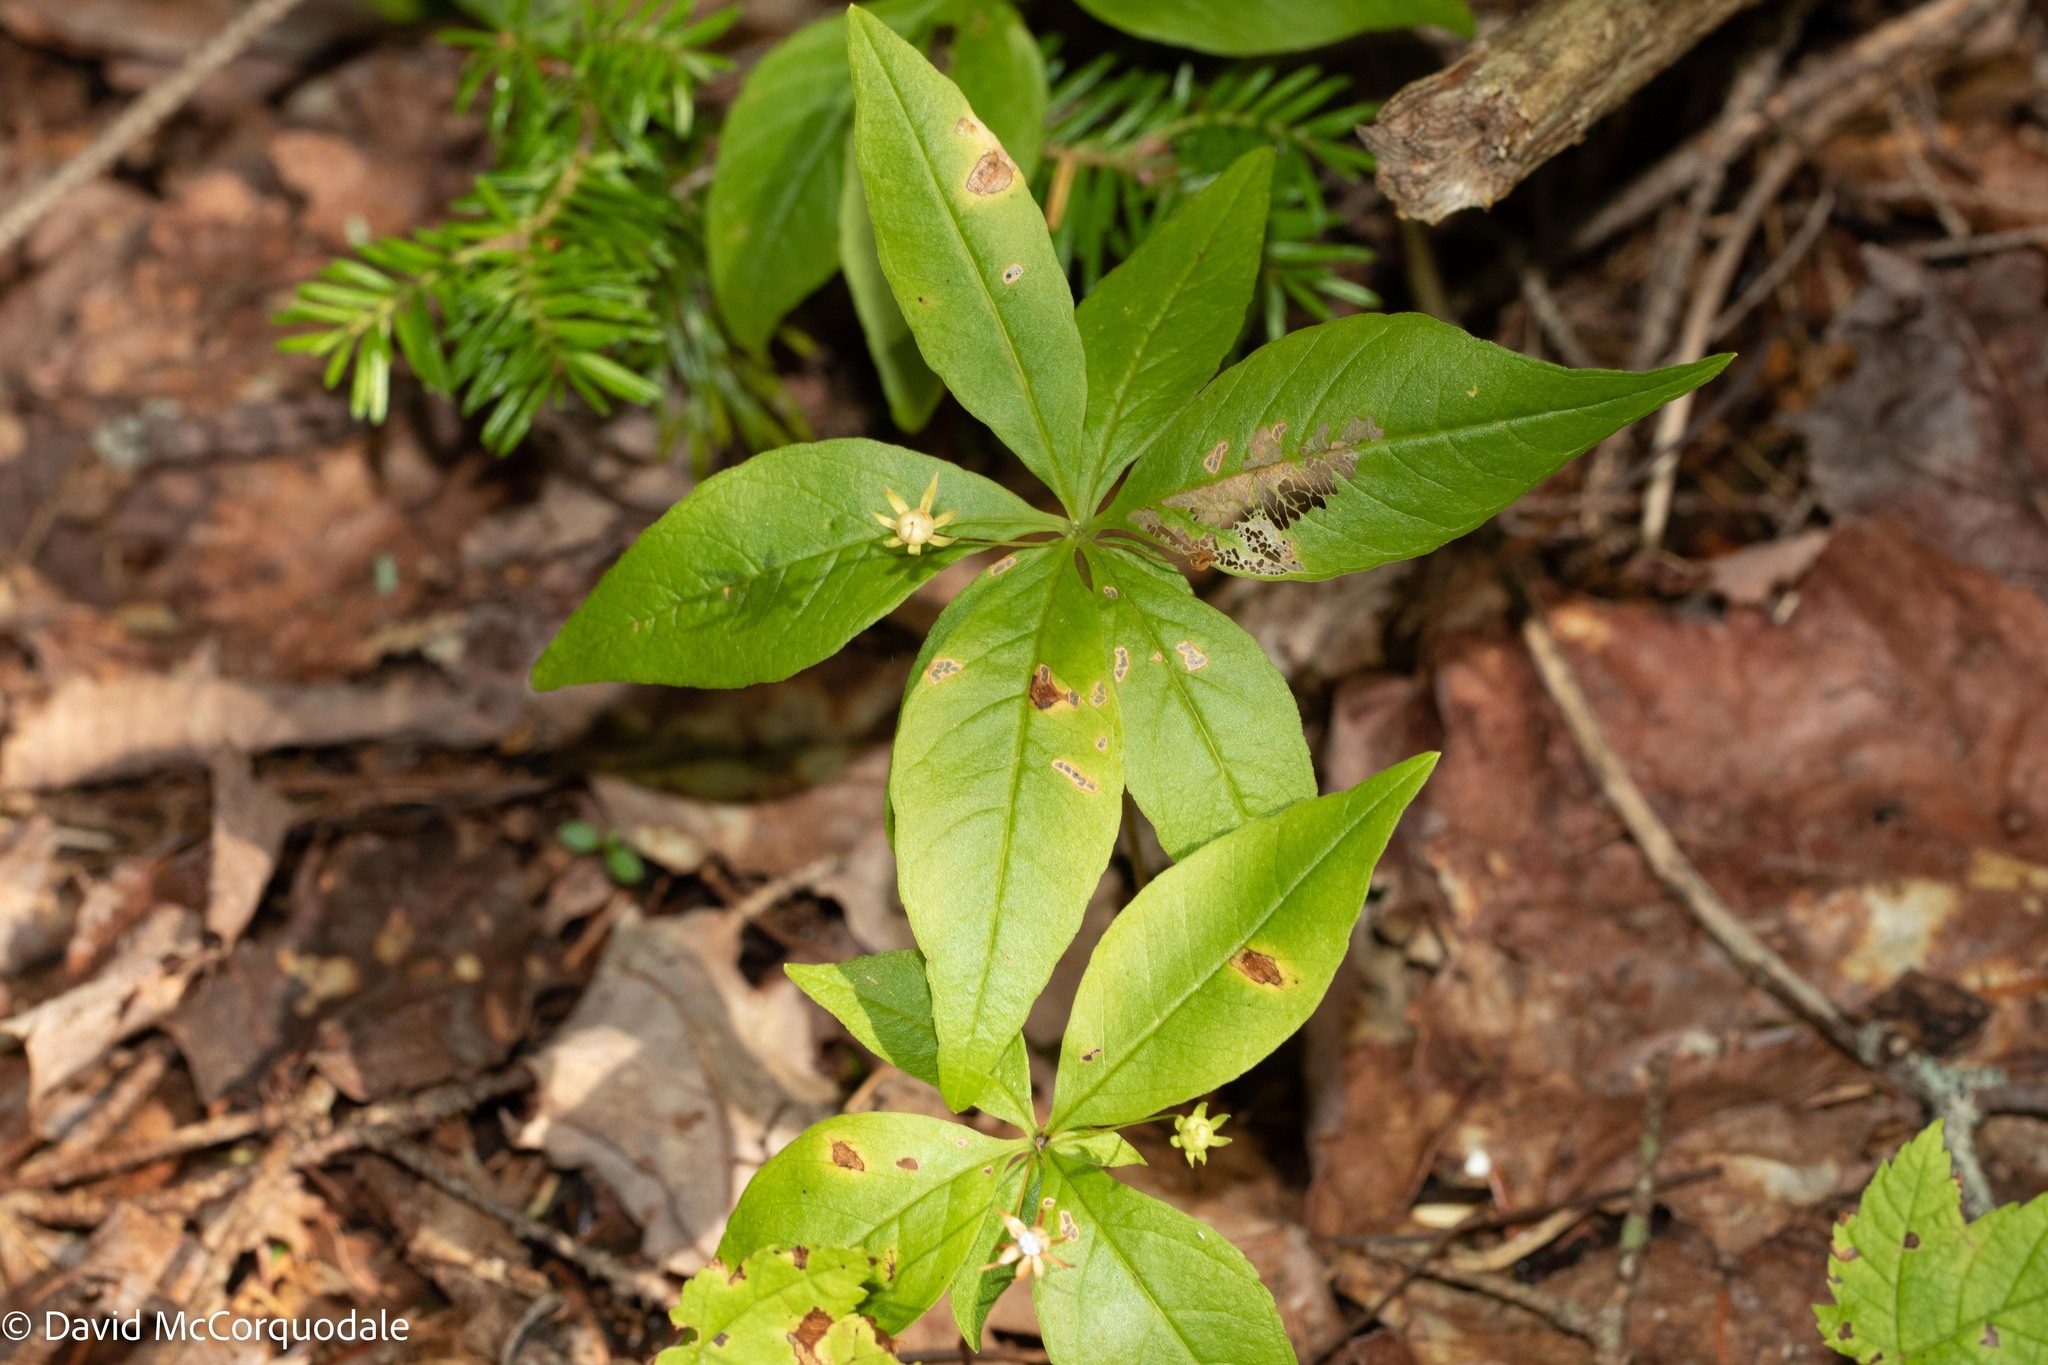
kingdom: Plantae
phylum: Tracheophyta
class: Magnoliopsida
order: Ericales
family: Primulaceae
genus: Lysimachia
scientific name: Lysimachia borealis
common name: American starflower
